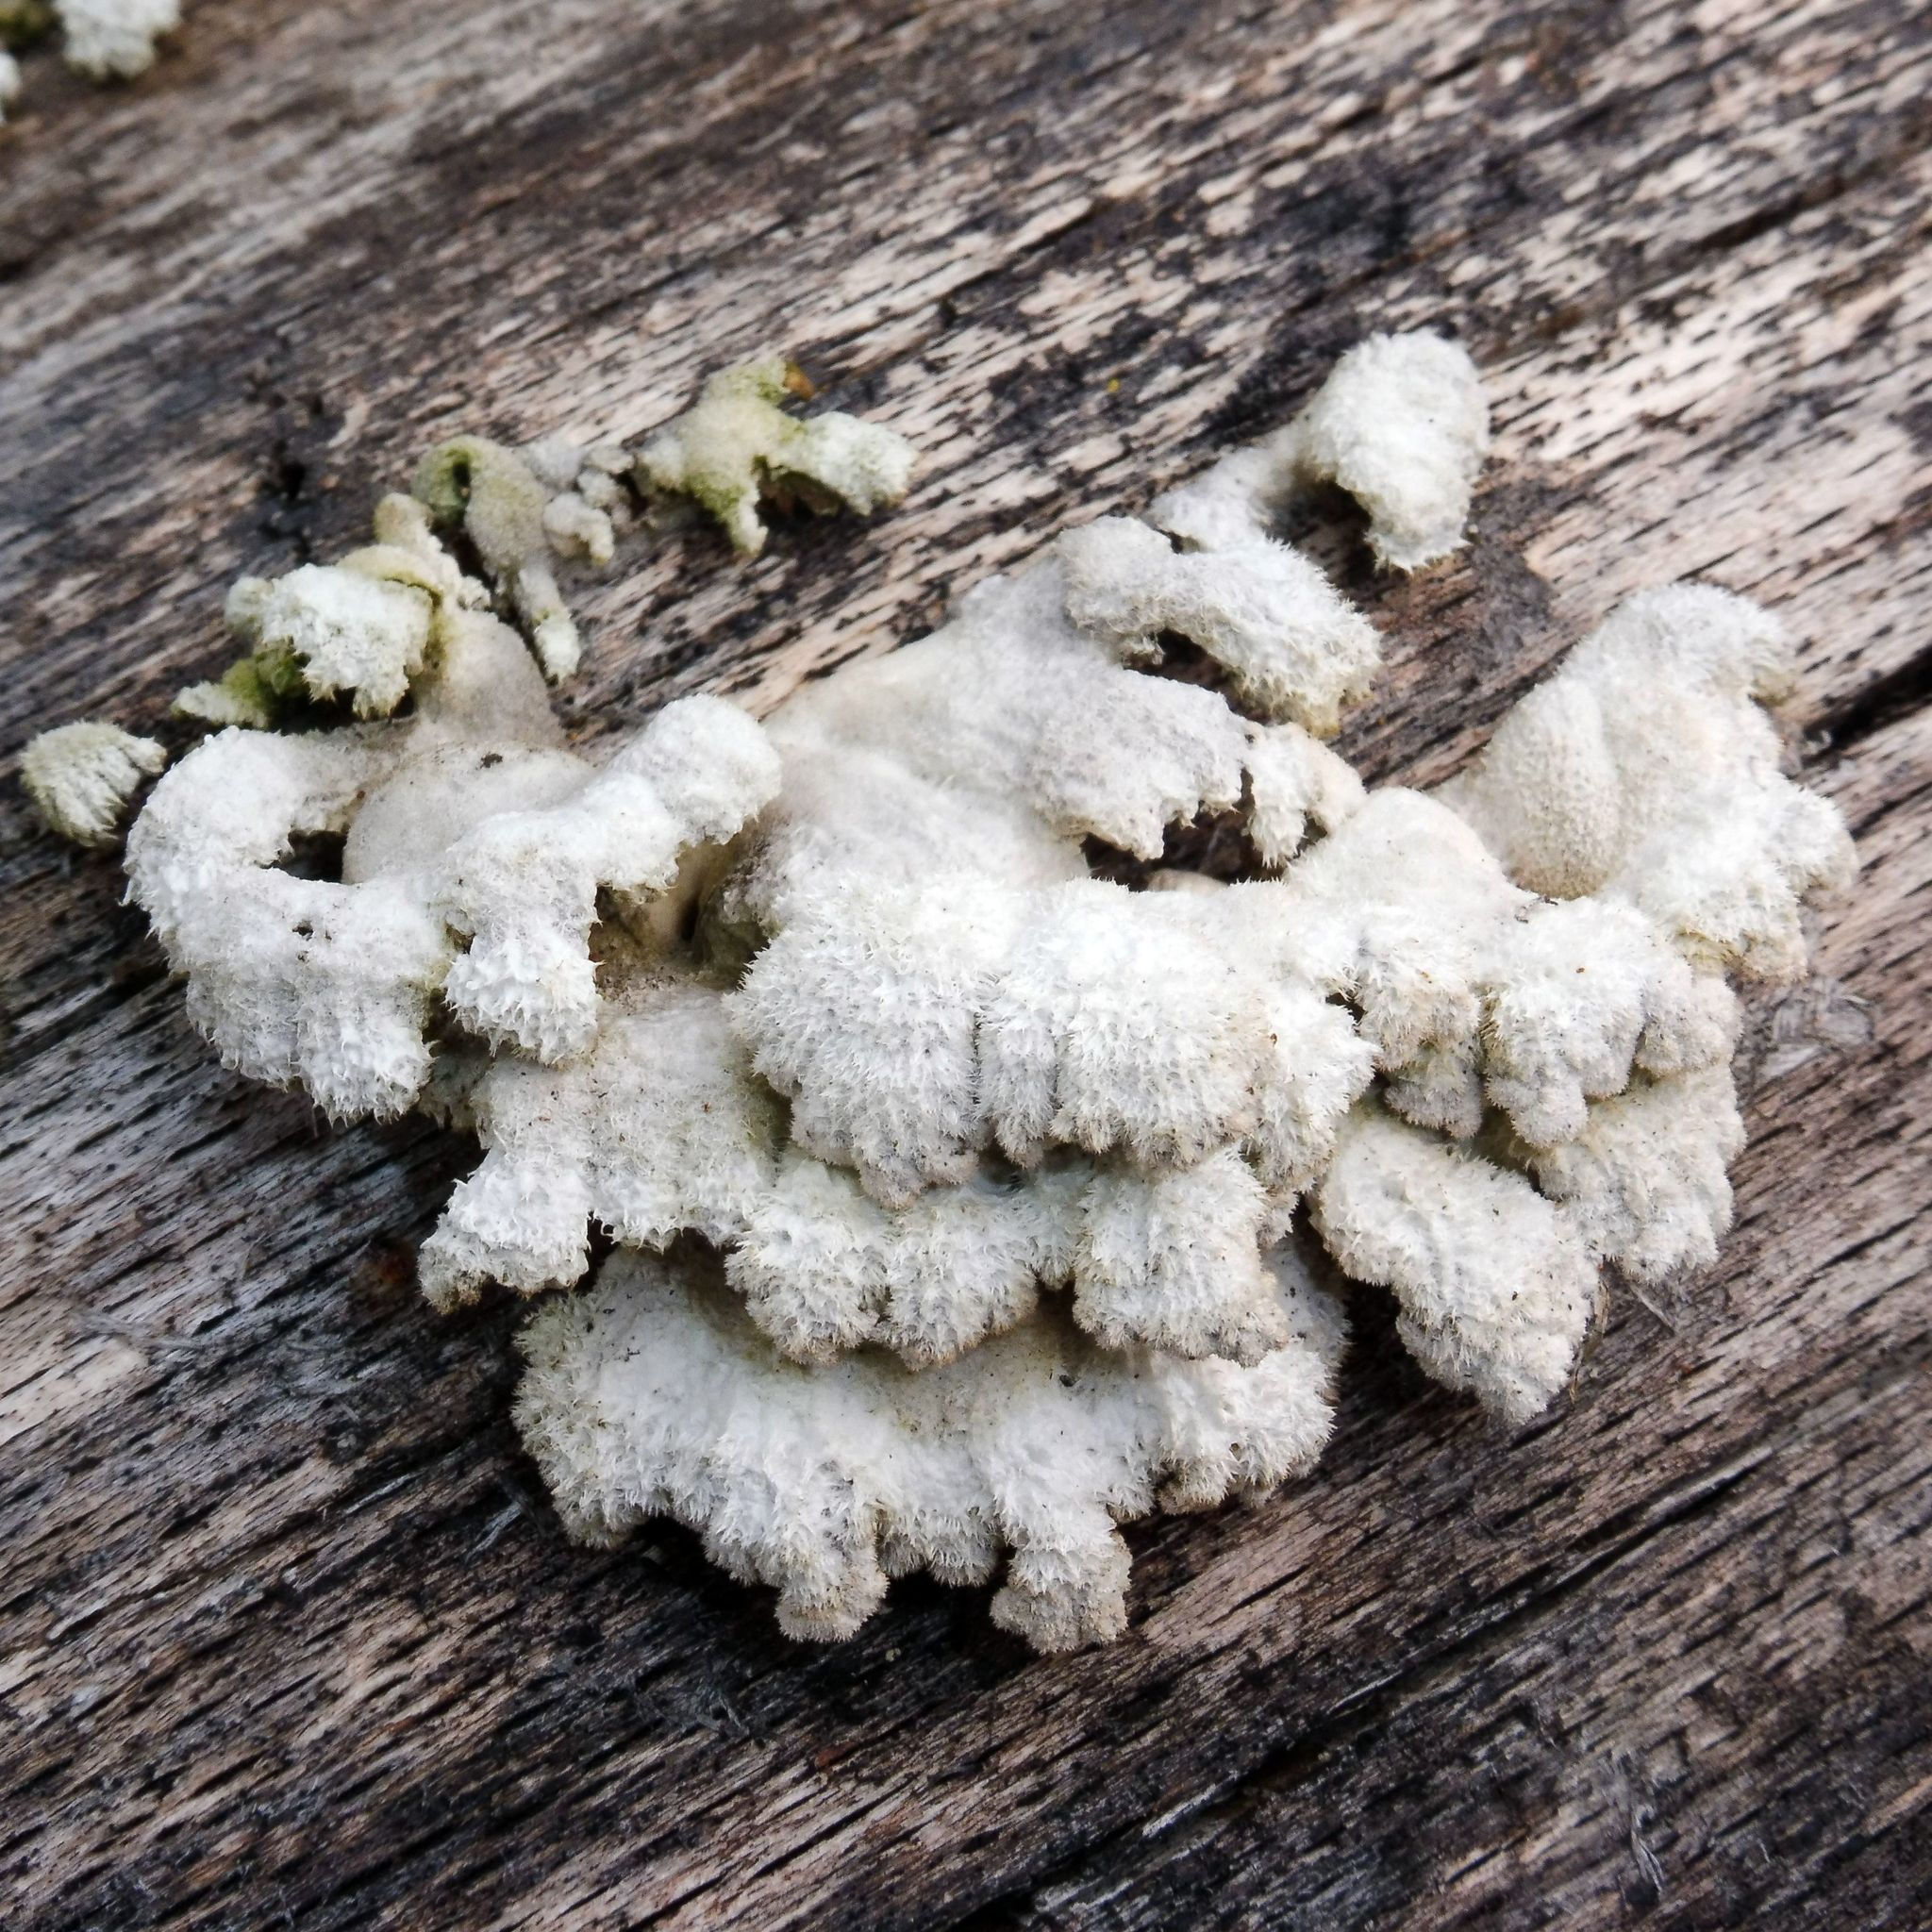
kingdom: Fungi
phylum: Basidiomycota
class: Agaricomycetes
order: Agaricales
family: Schizophyllaceae
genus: Schizophyllum
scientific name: Schizophyllum commune
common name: Common porecrust
